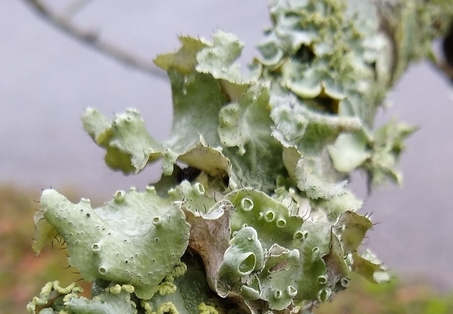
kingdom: Fungi
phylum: Ascomycota
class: Lecanoromycetes
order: Lecanorales
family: Parmeliaceae
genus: Parmotrema
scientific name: Parmotrema perforatum
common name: Perforated ruffle lichen
